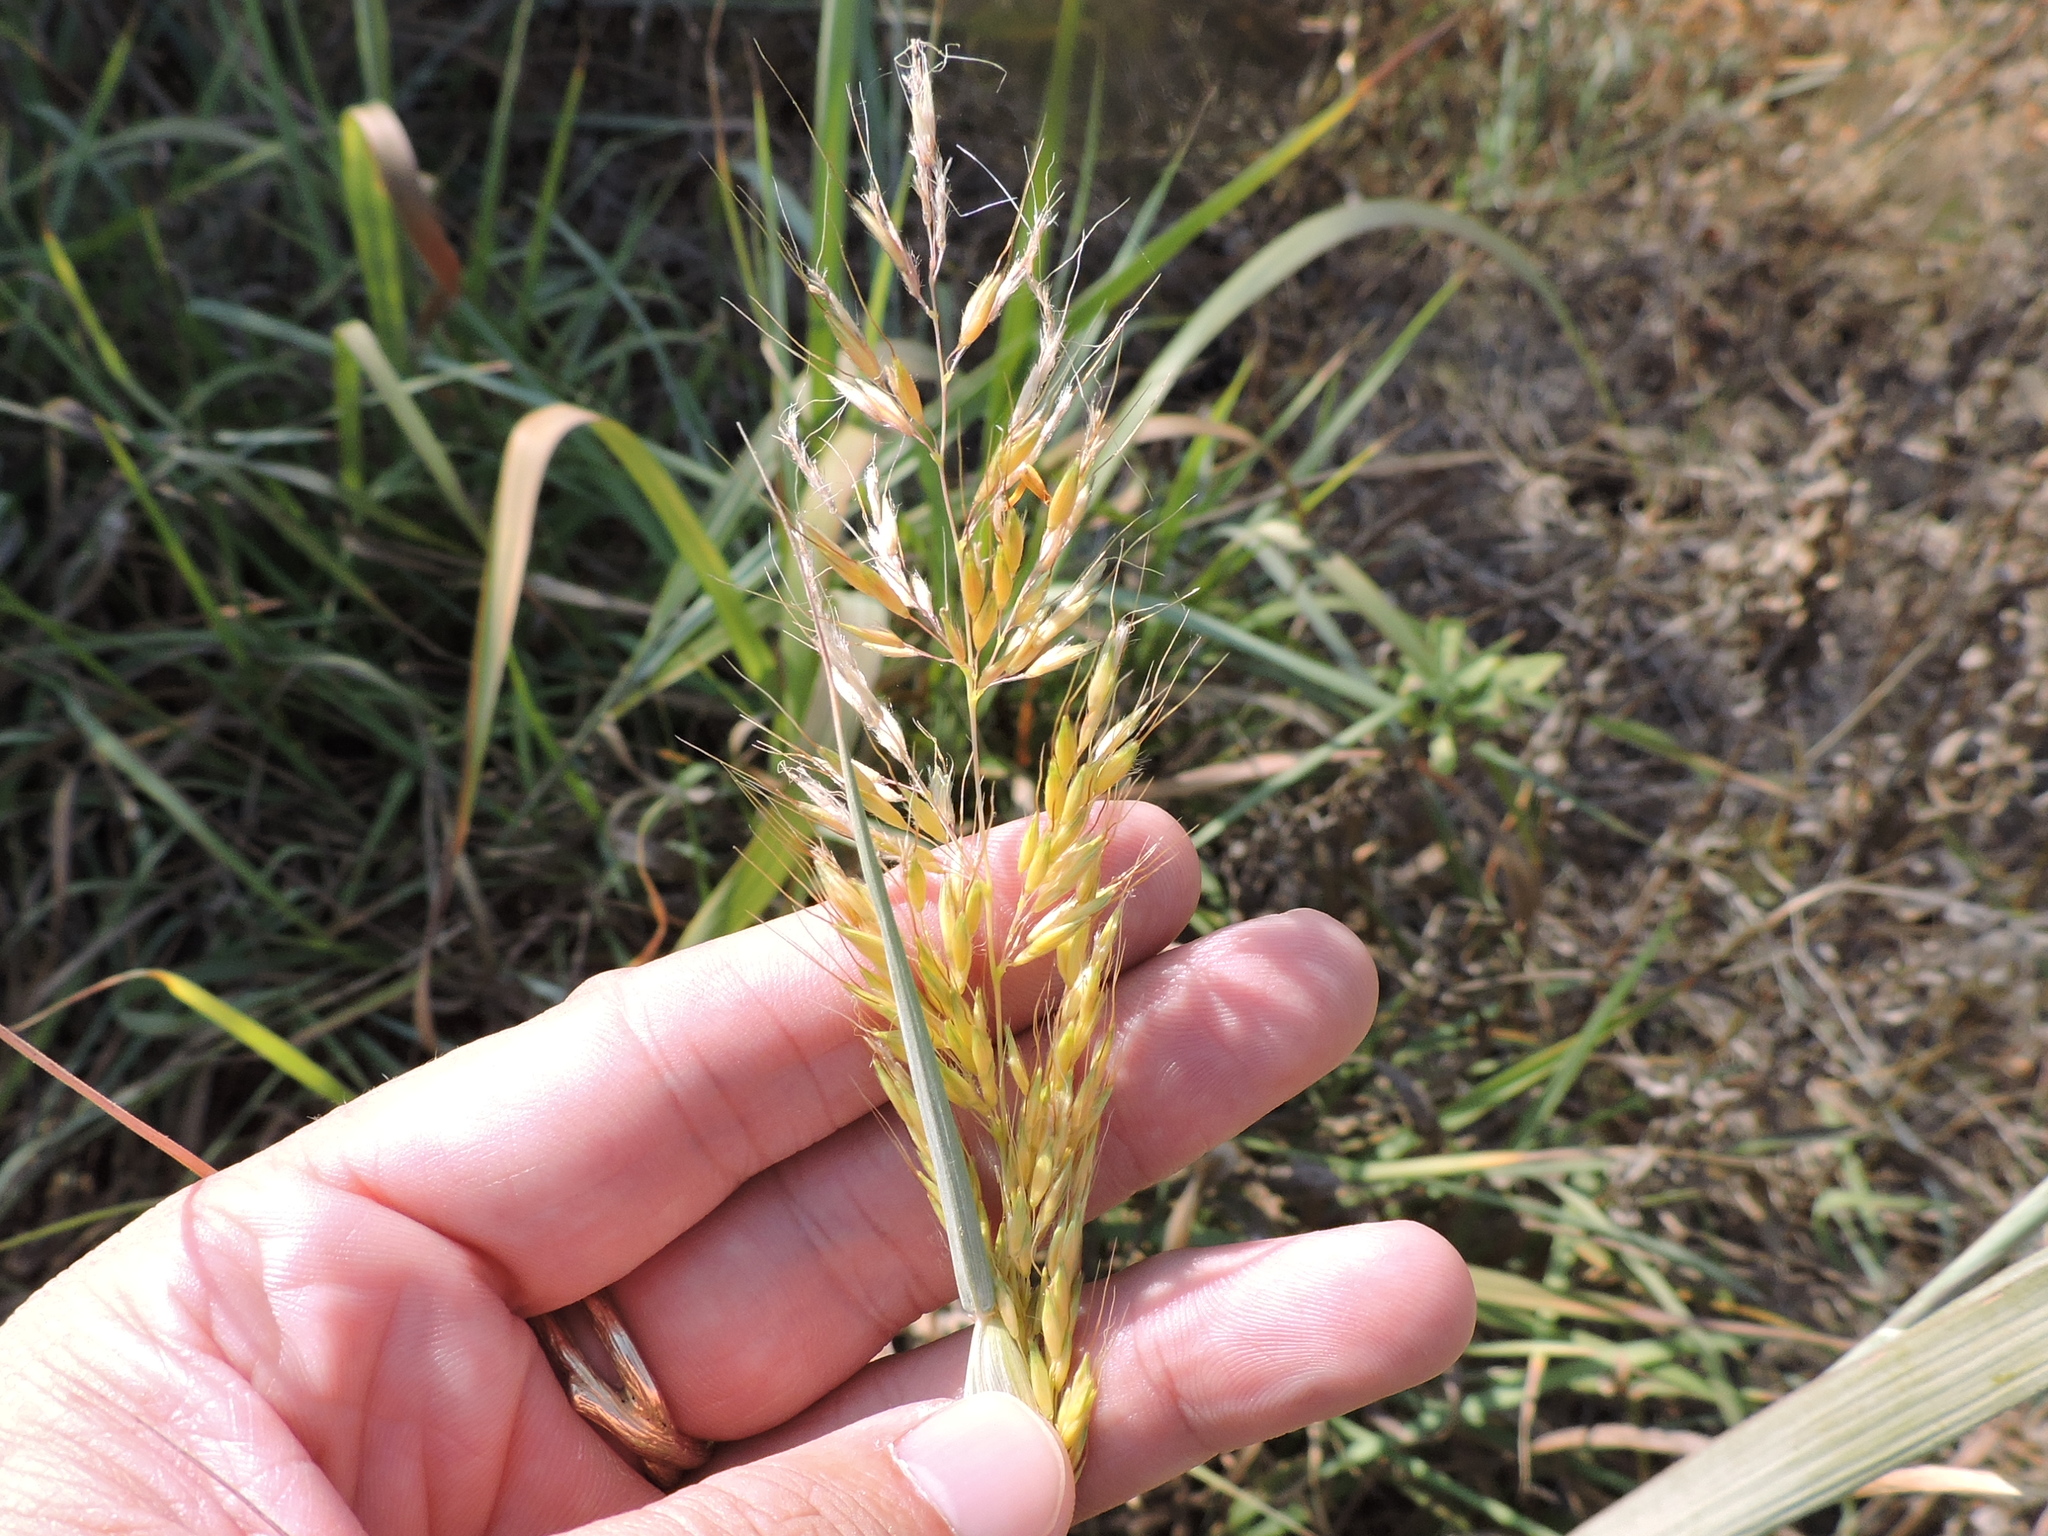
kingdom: Plantae
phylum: Tracheophyta
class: Liliopsida
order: Poales
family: Poaceae
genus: Sorghastrum
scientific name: Sorghastrum nutans
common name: Indian grass
